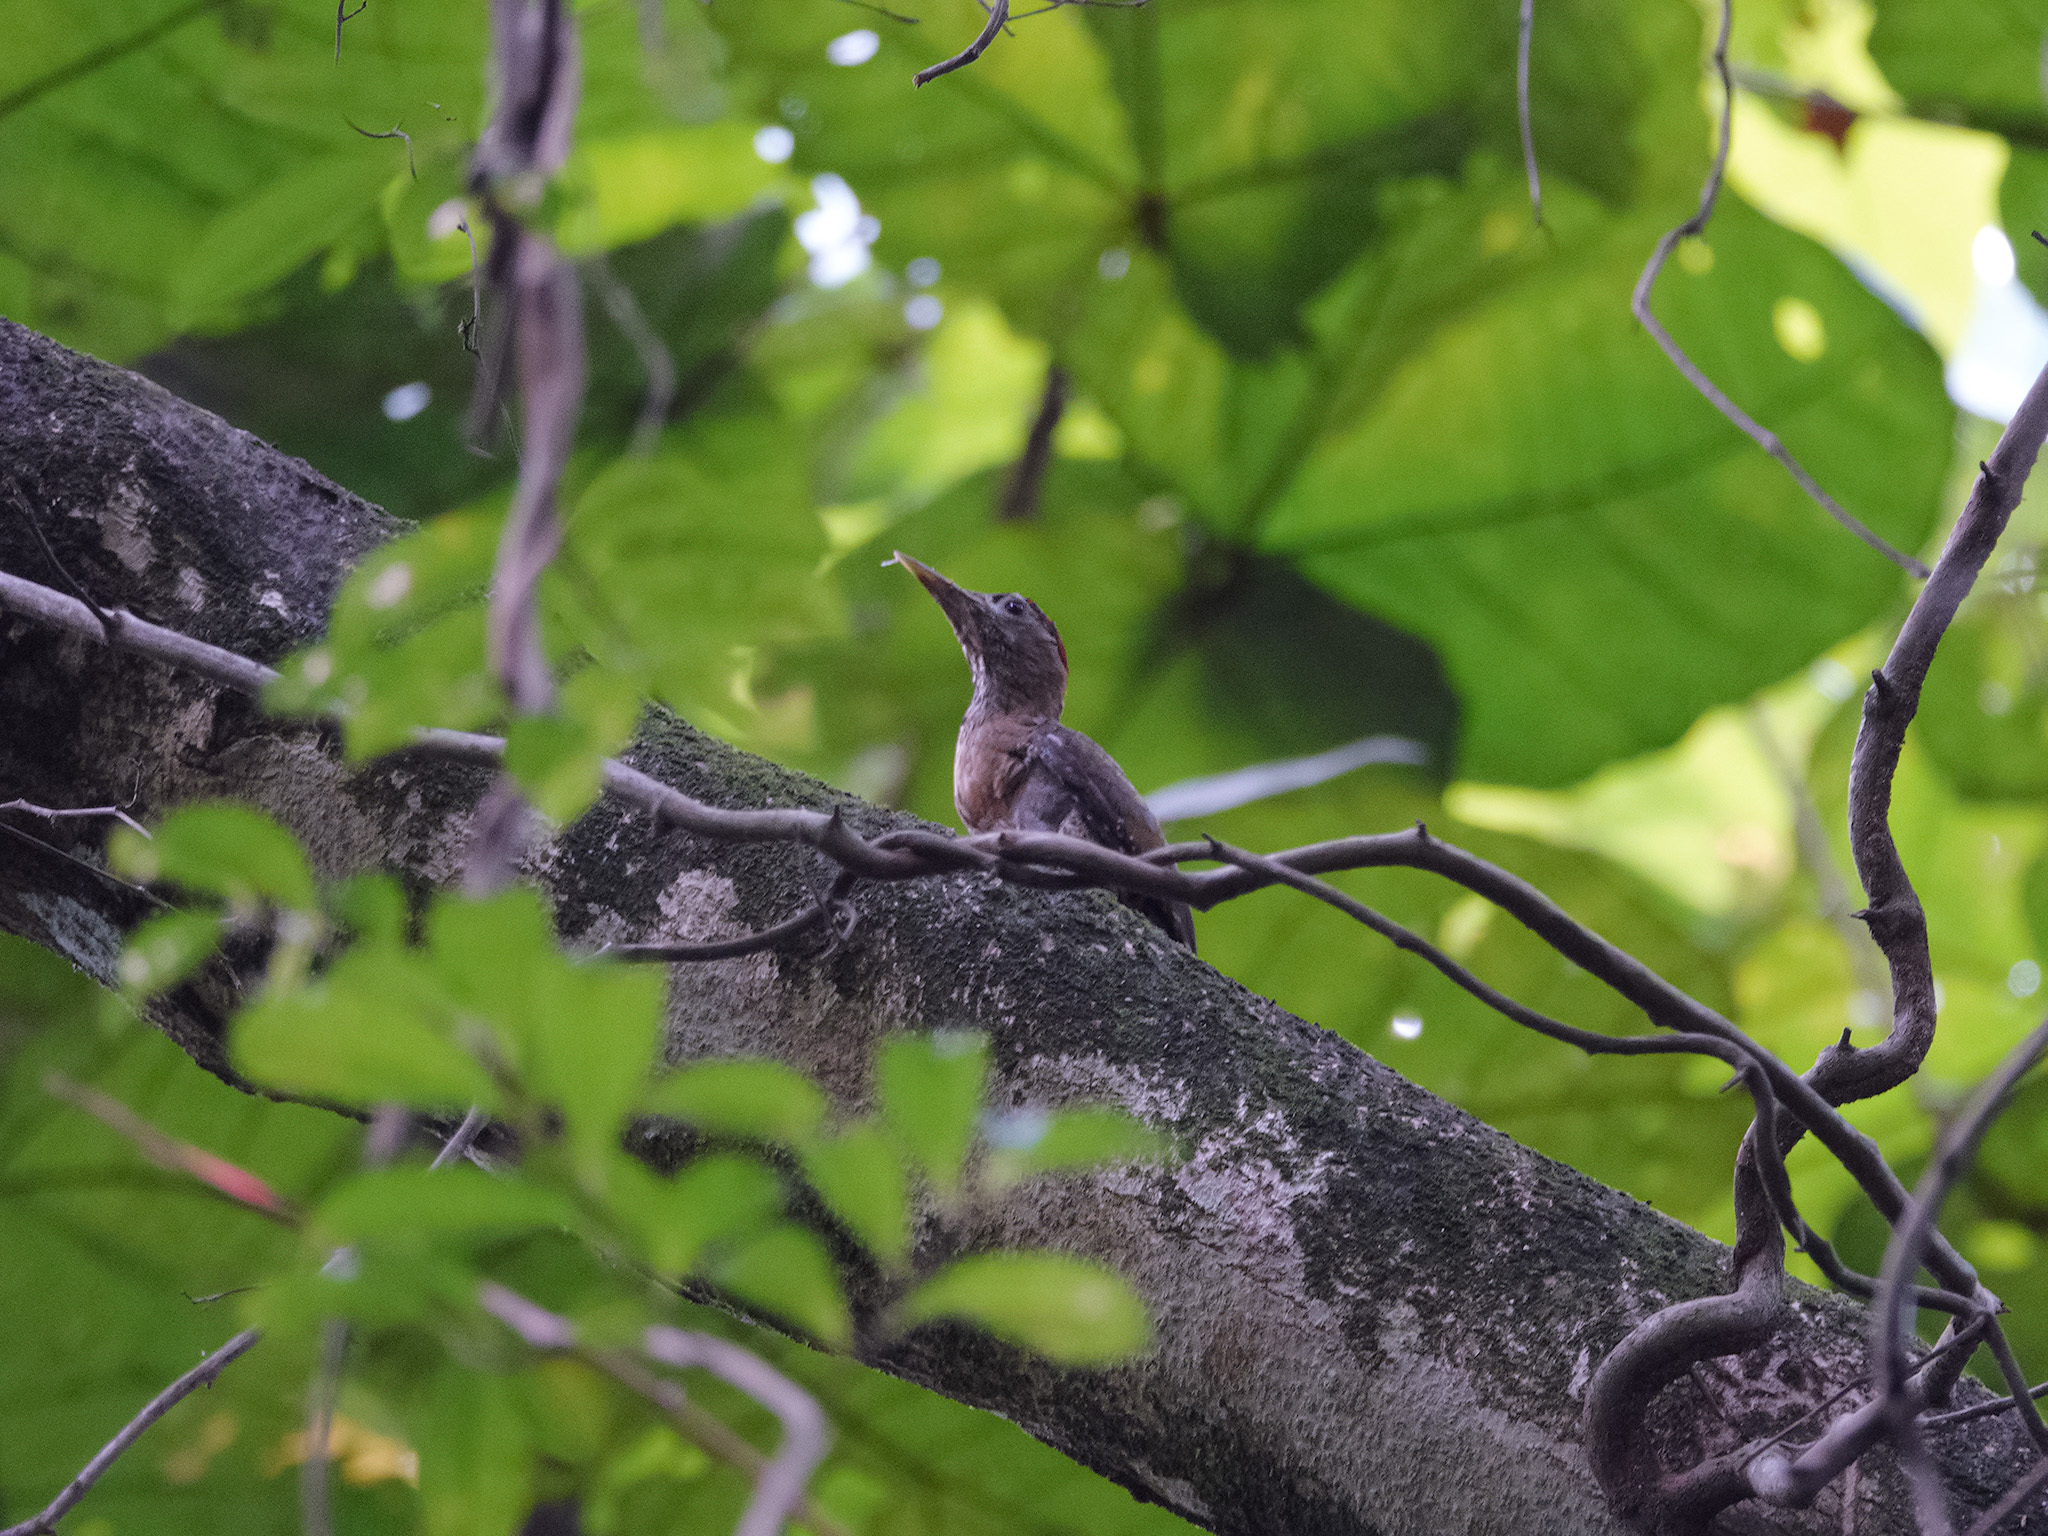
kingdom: Animalia
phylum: Chordata
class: Aves
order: Piciformes
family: Picidae
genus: Picus
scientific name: Picus vittatus
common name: Laced woodpecker
